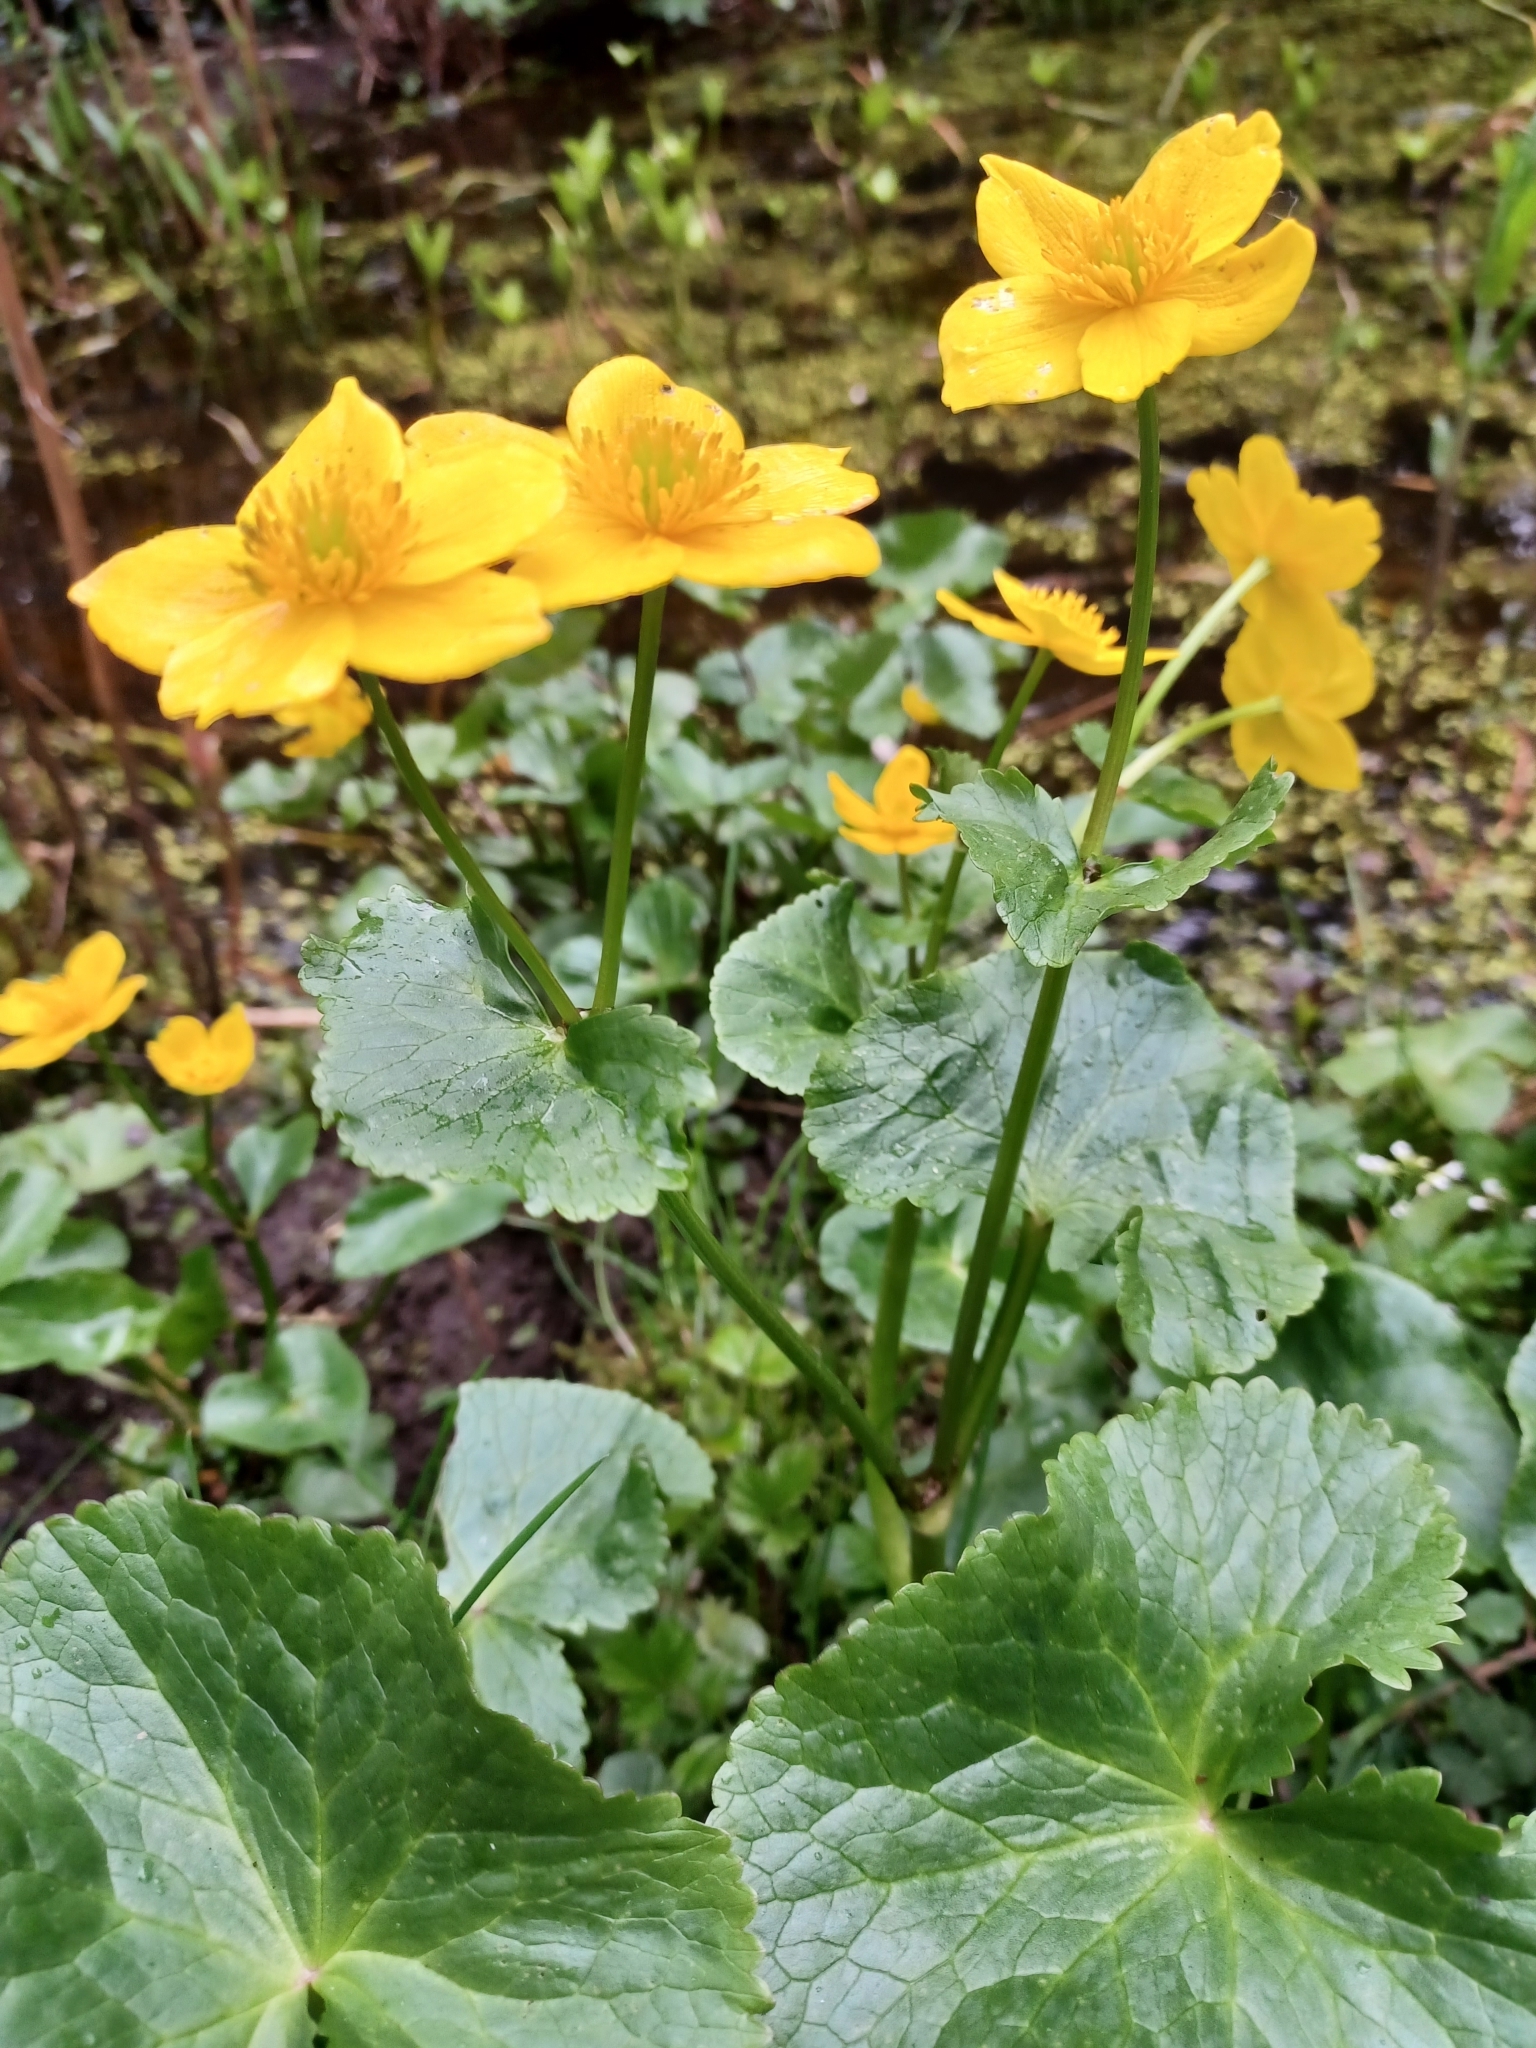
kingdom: Plantae
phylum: Tracheophyta
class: Magnoliopsida
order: Ranunculales
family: Ranunculaceae
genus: Caltha
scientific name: Caltha palustris
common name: Marsh marigold
